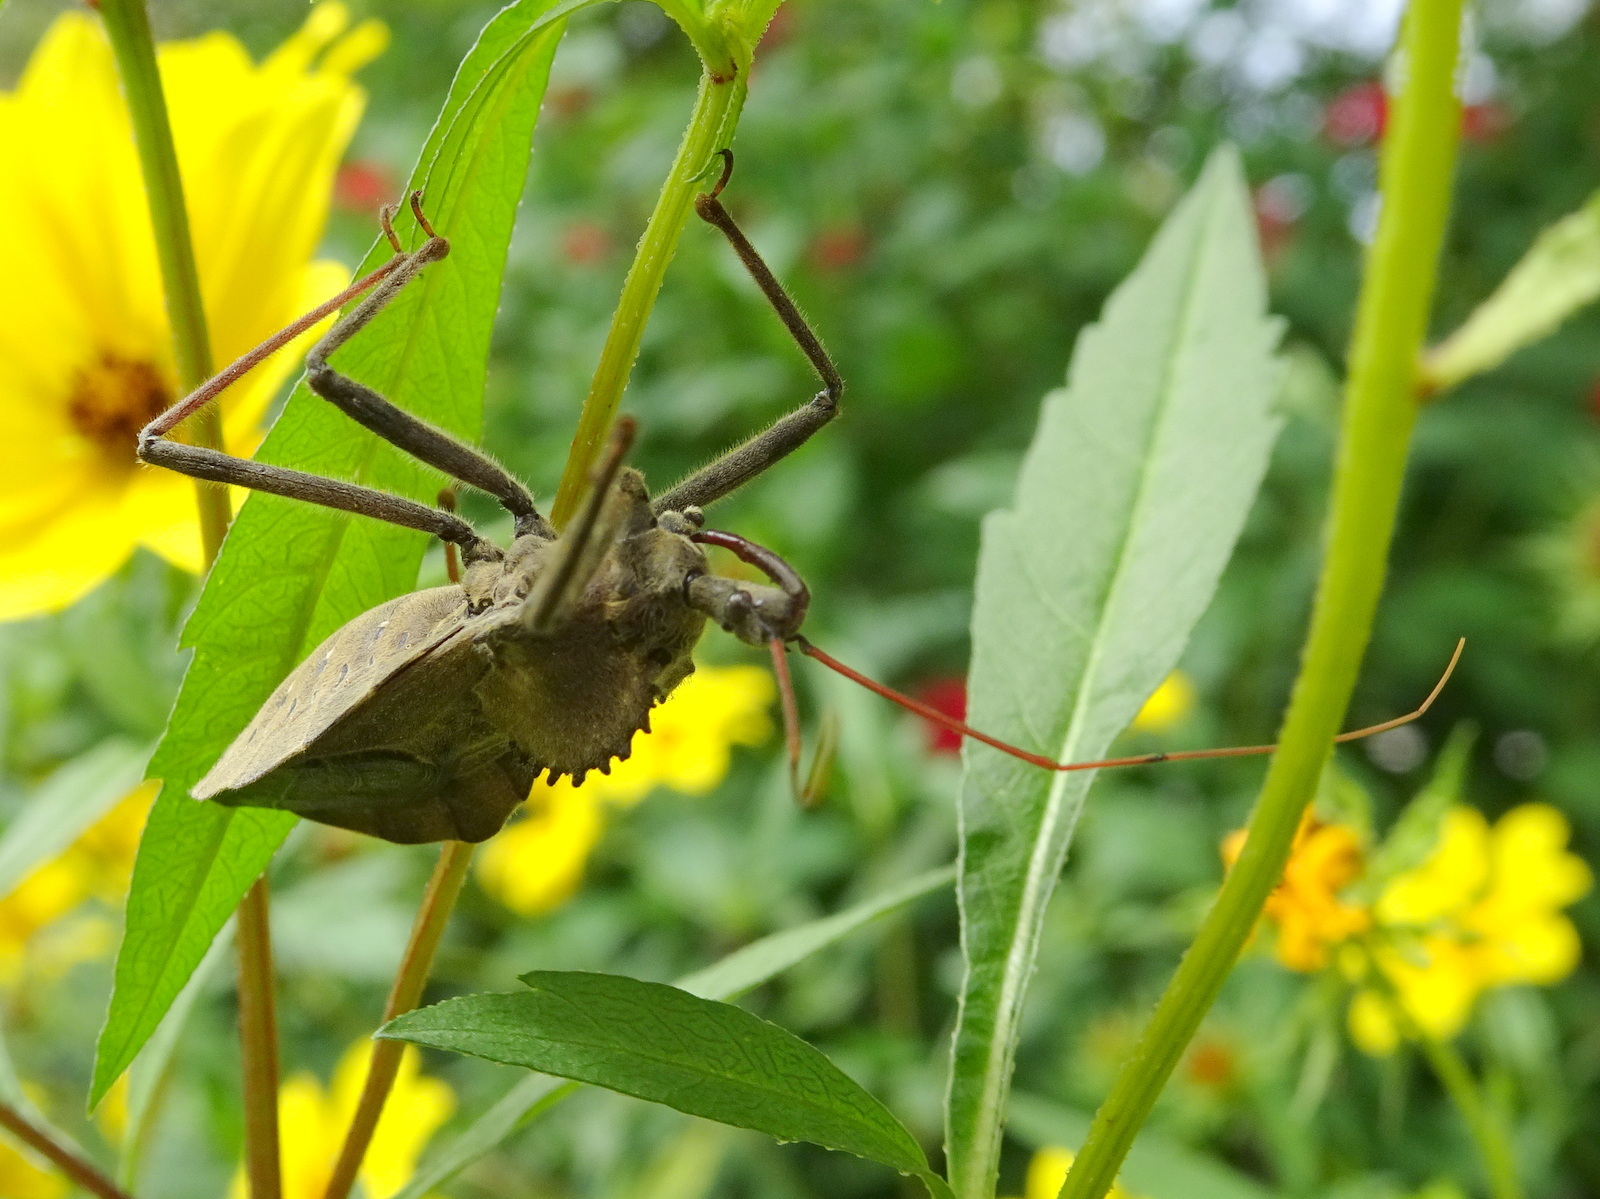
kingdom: Animalia
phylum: Arthropoda
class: Insecta
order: Hemiptera
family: Reduviidae
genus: Arilus
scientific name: Arilus cristatus
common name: North american wheel bug
